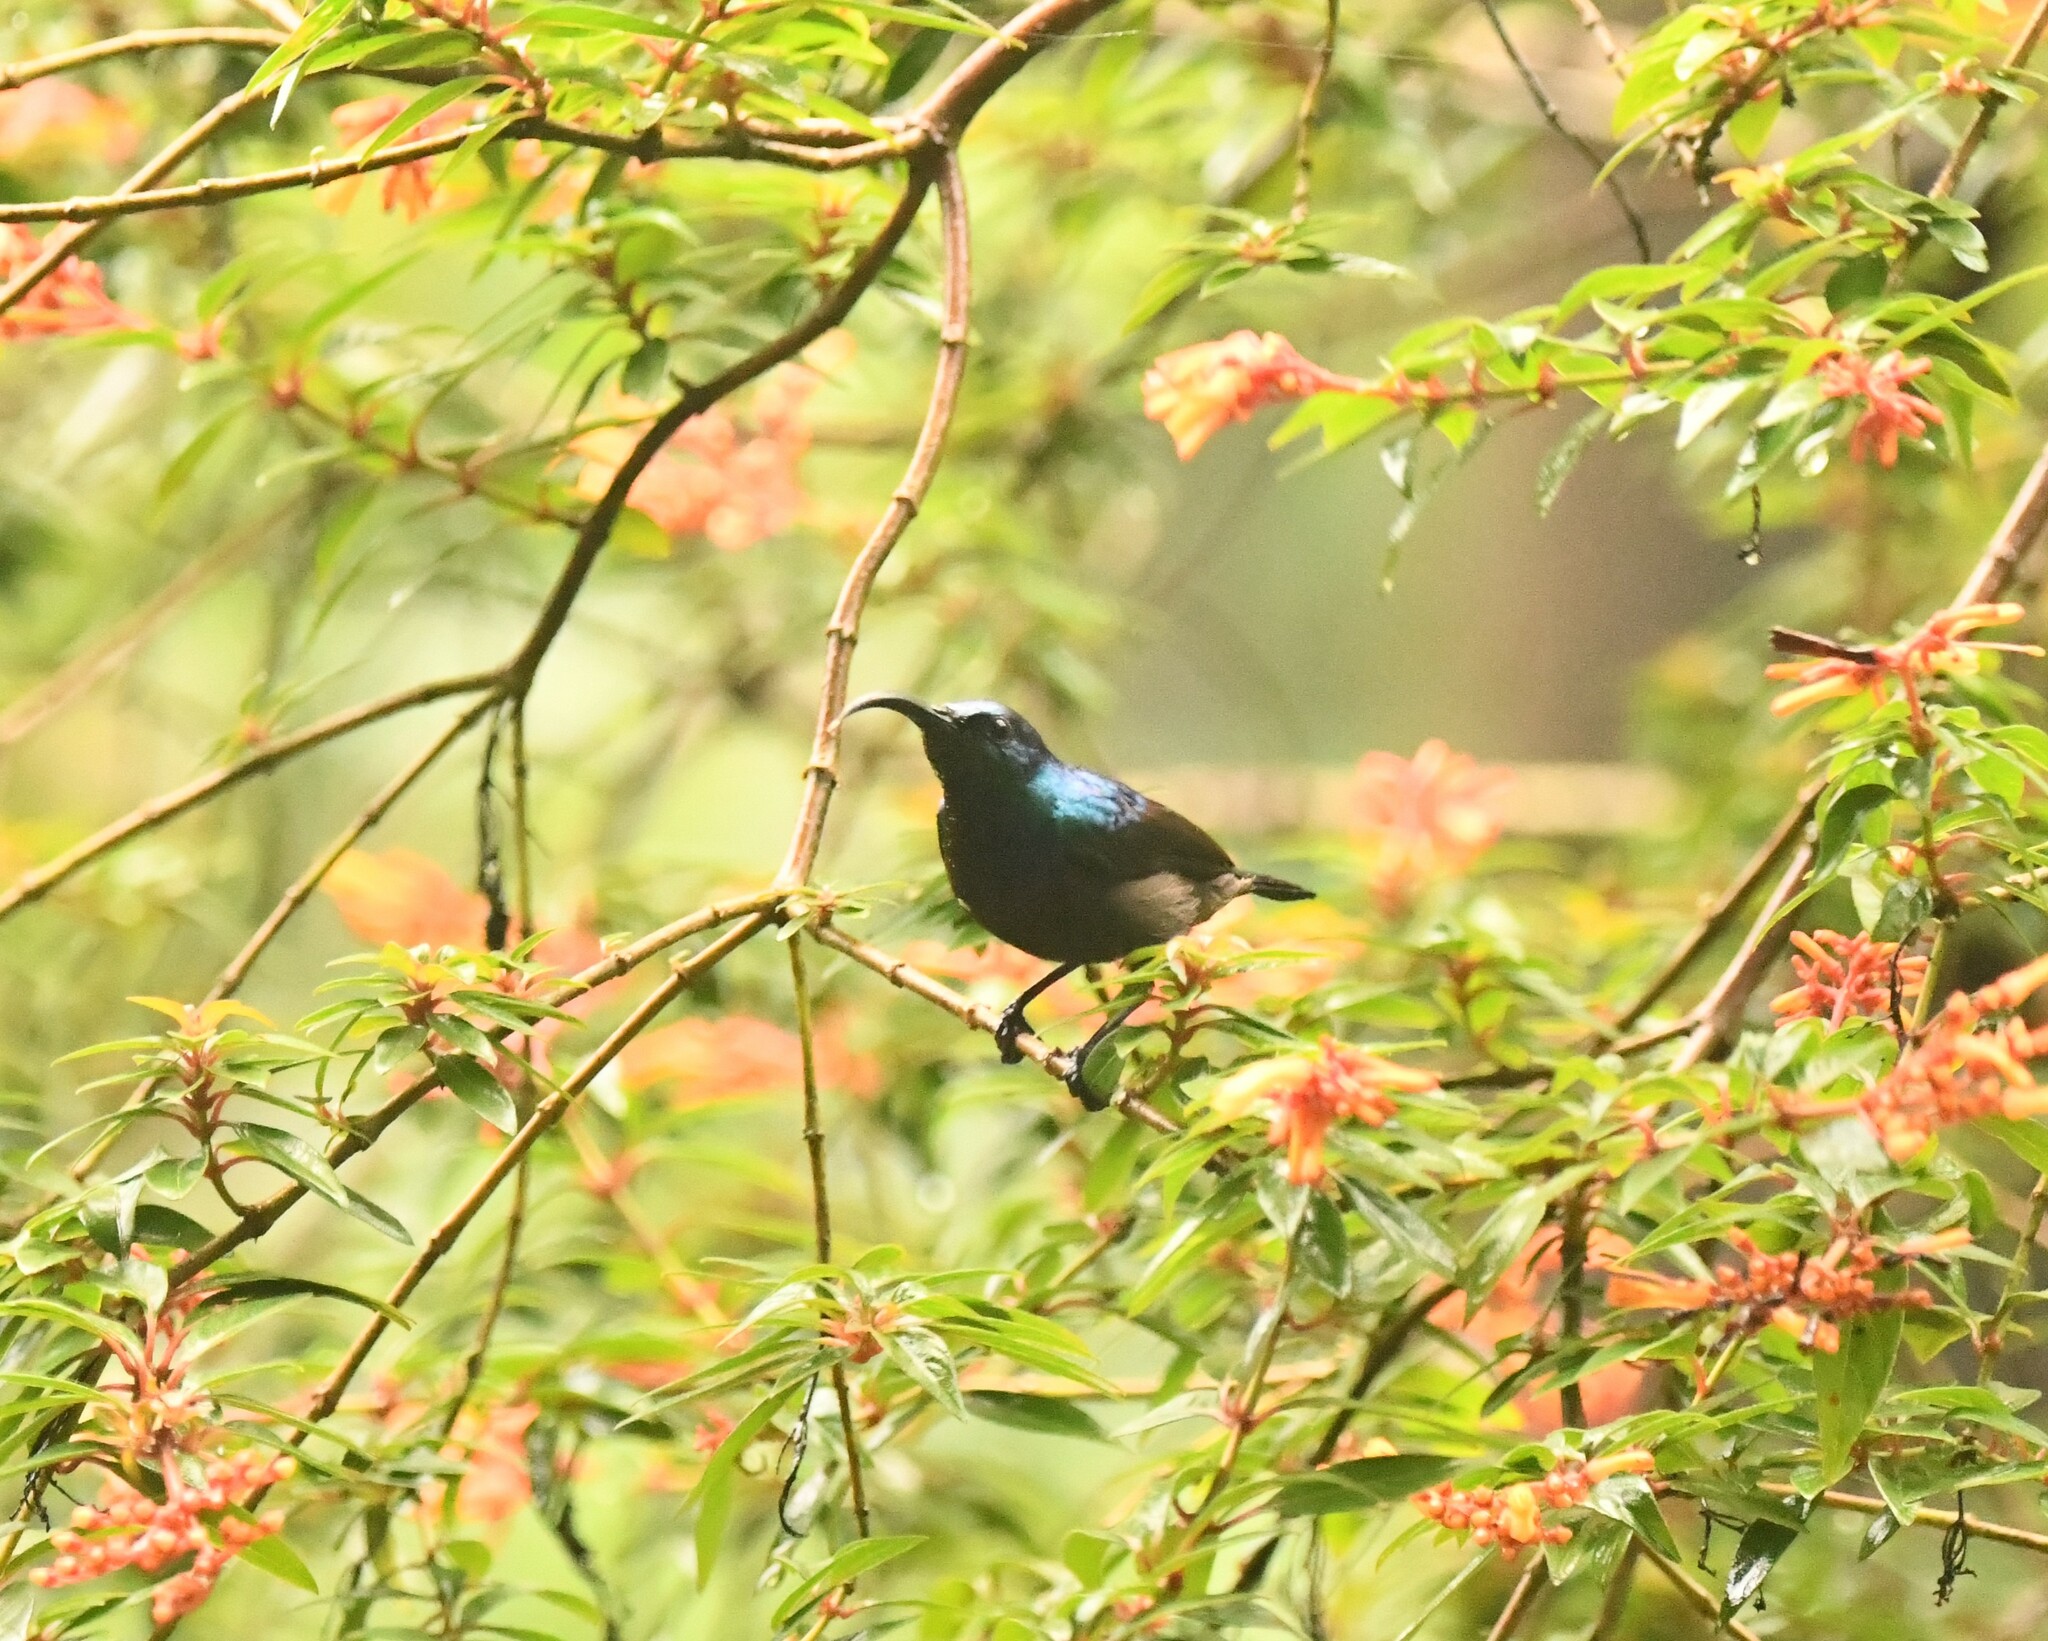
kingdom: Animalia
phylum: Chordata
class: Aves
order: Passeriformes
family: Nectariniidae
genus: Cinnyris
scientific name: Cinnyris lotenius
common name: Loten's sunbird
